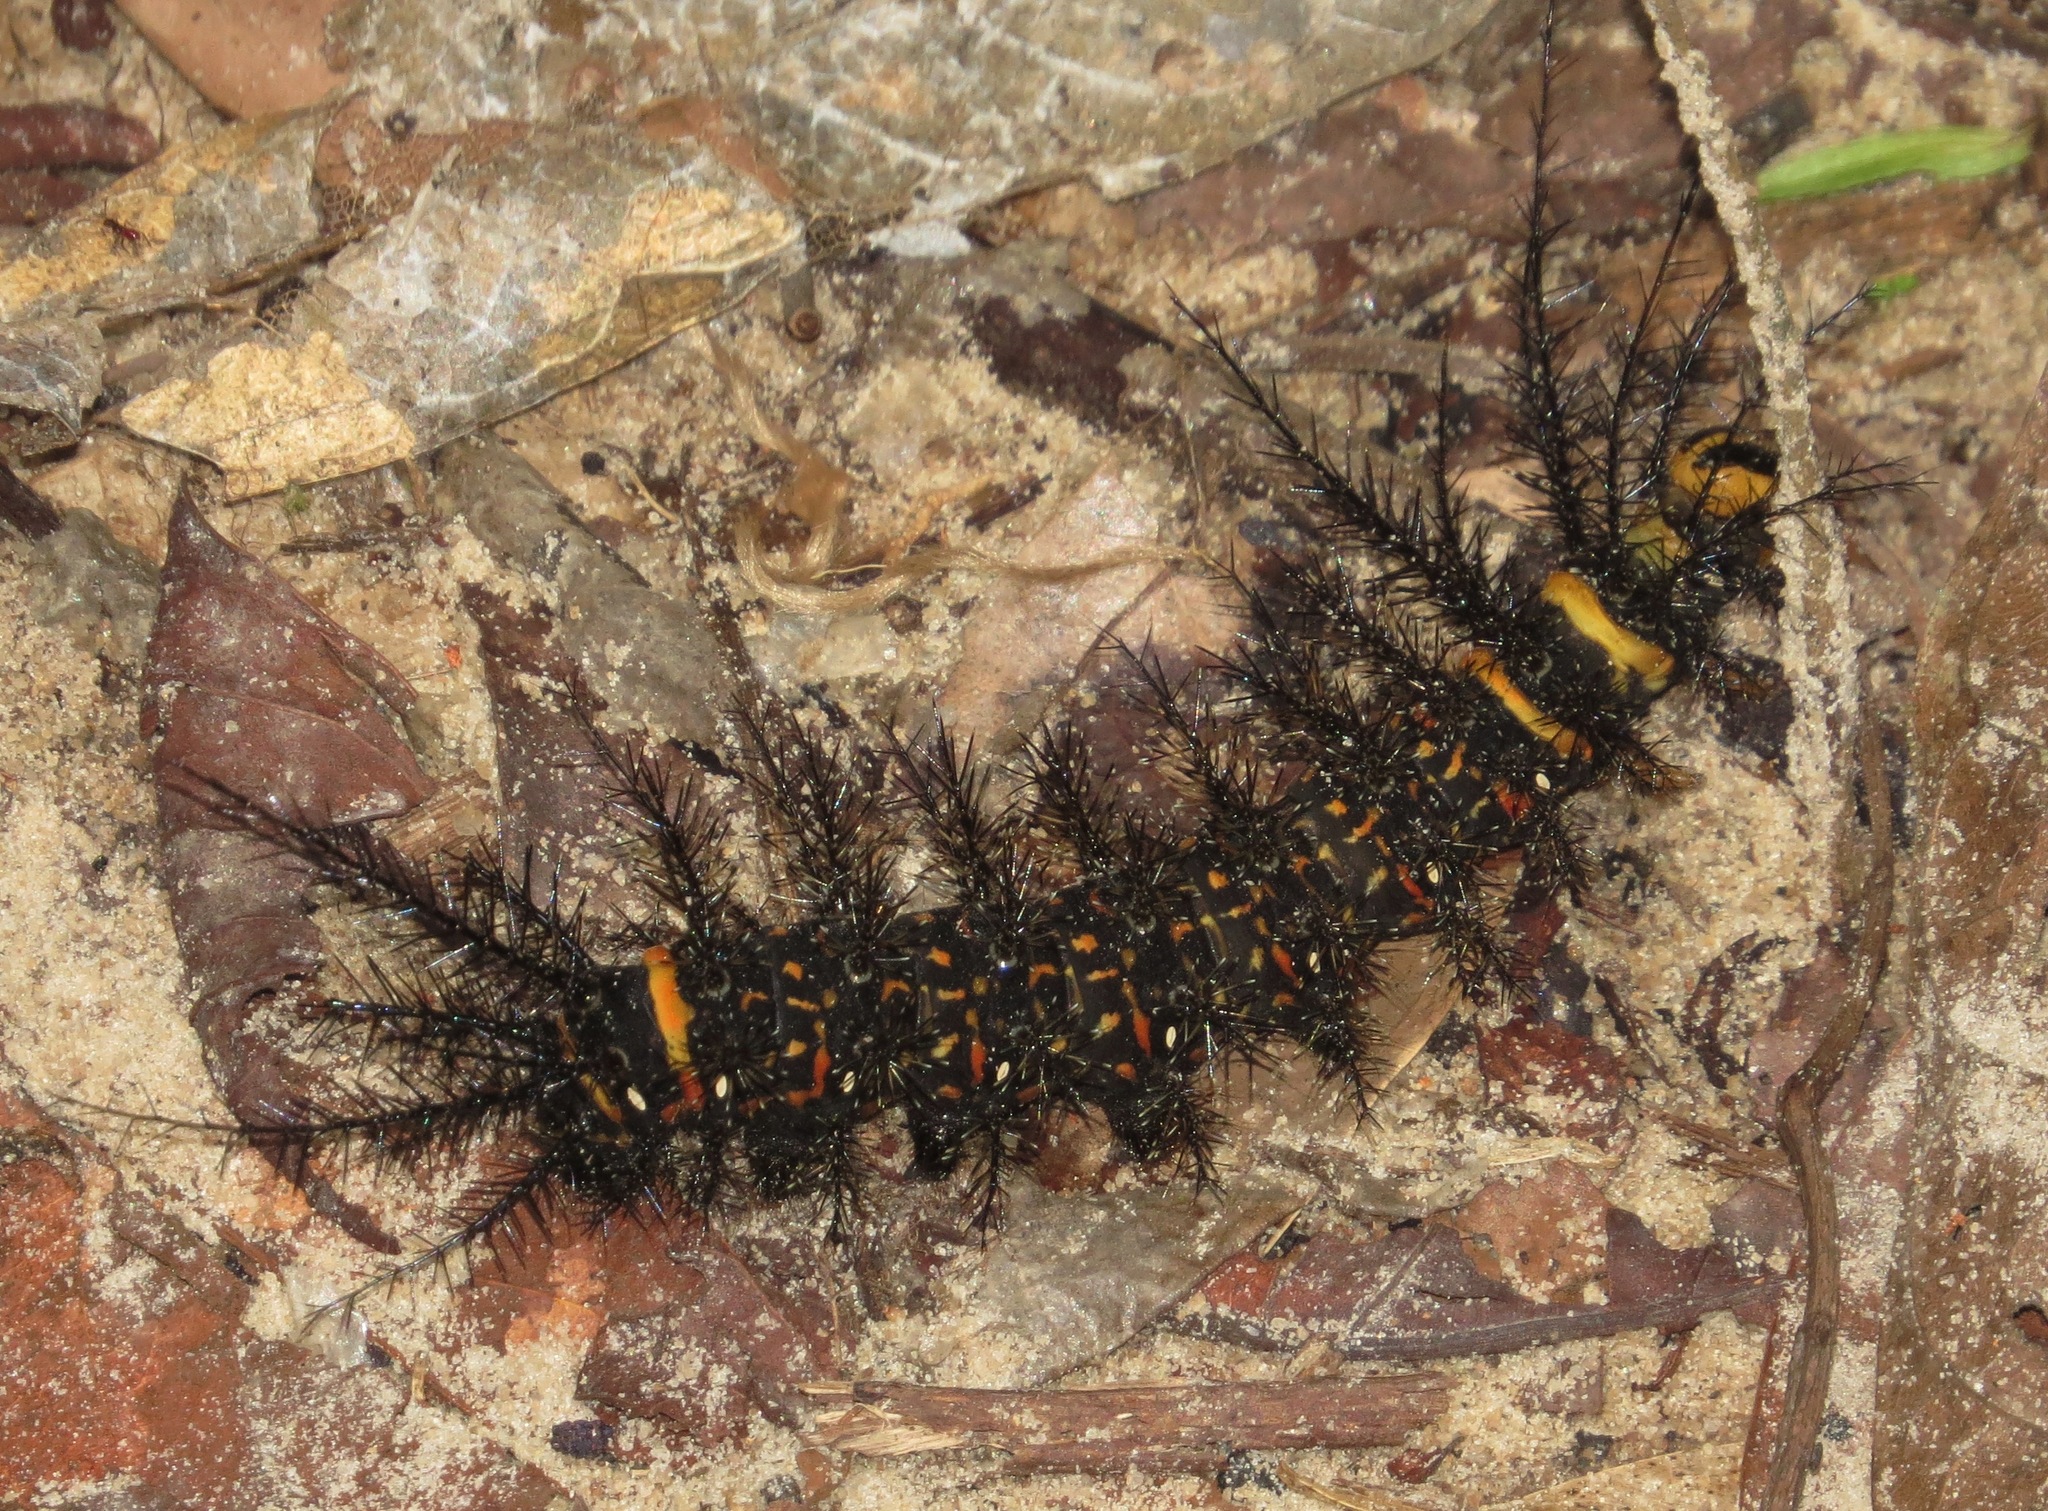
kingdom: Animalia
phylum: Arthropoda
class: Insecta
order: Lepidoptera
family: Saturniidae
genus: Pseudautomeris
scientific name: Pseudautomeris salmonea
